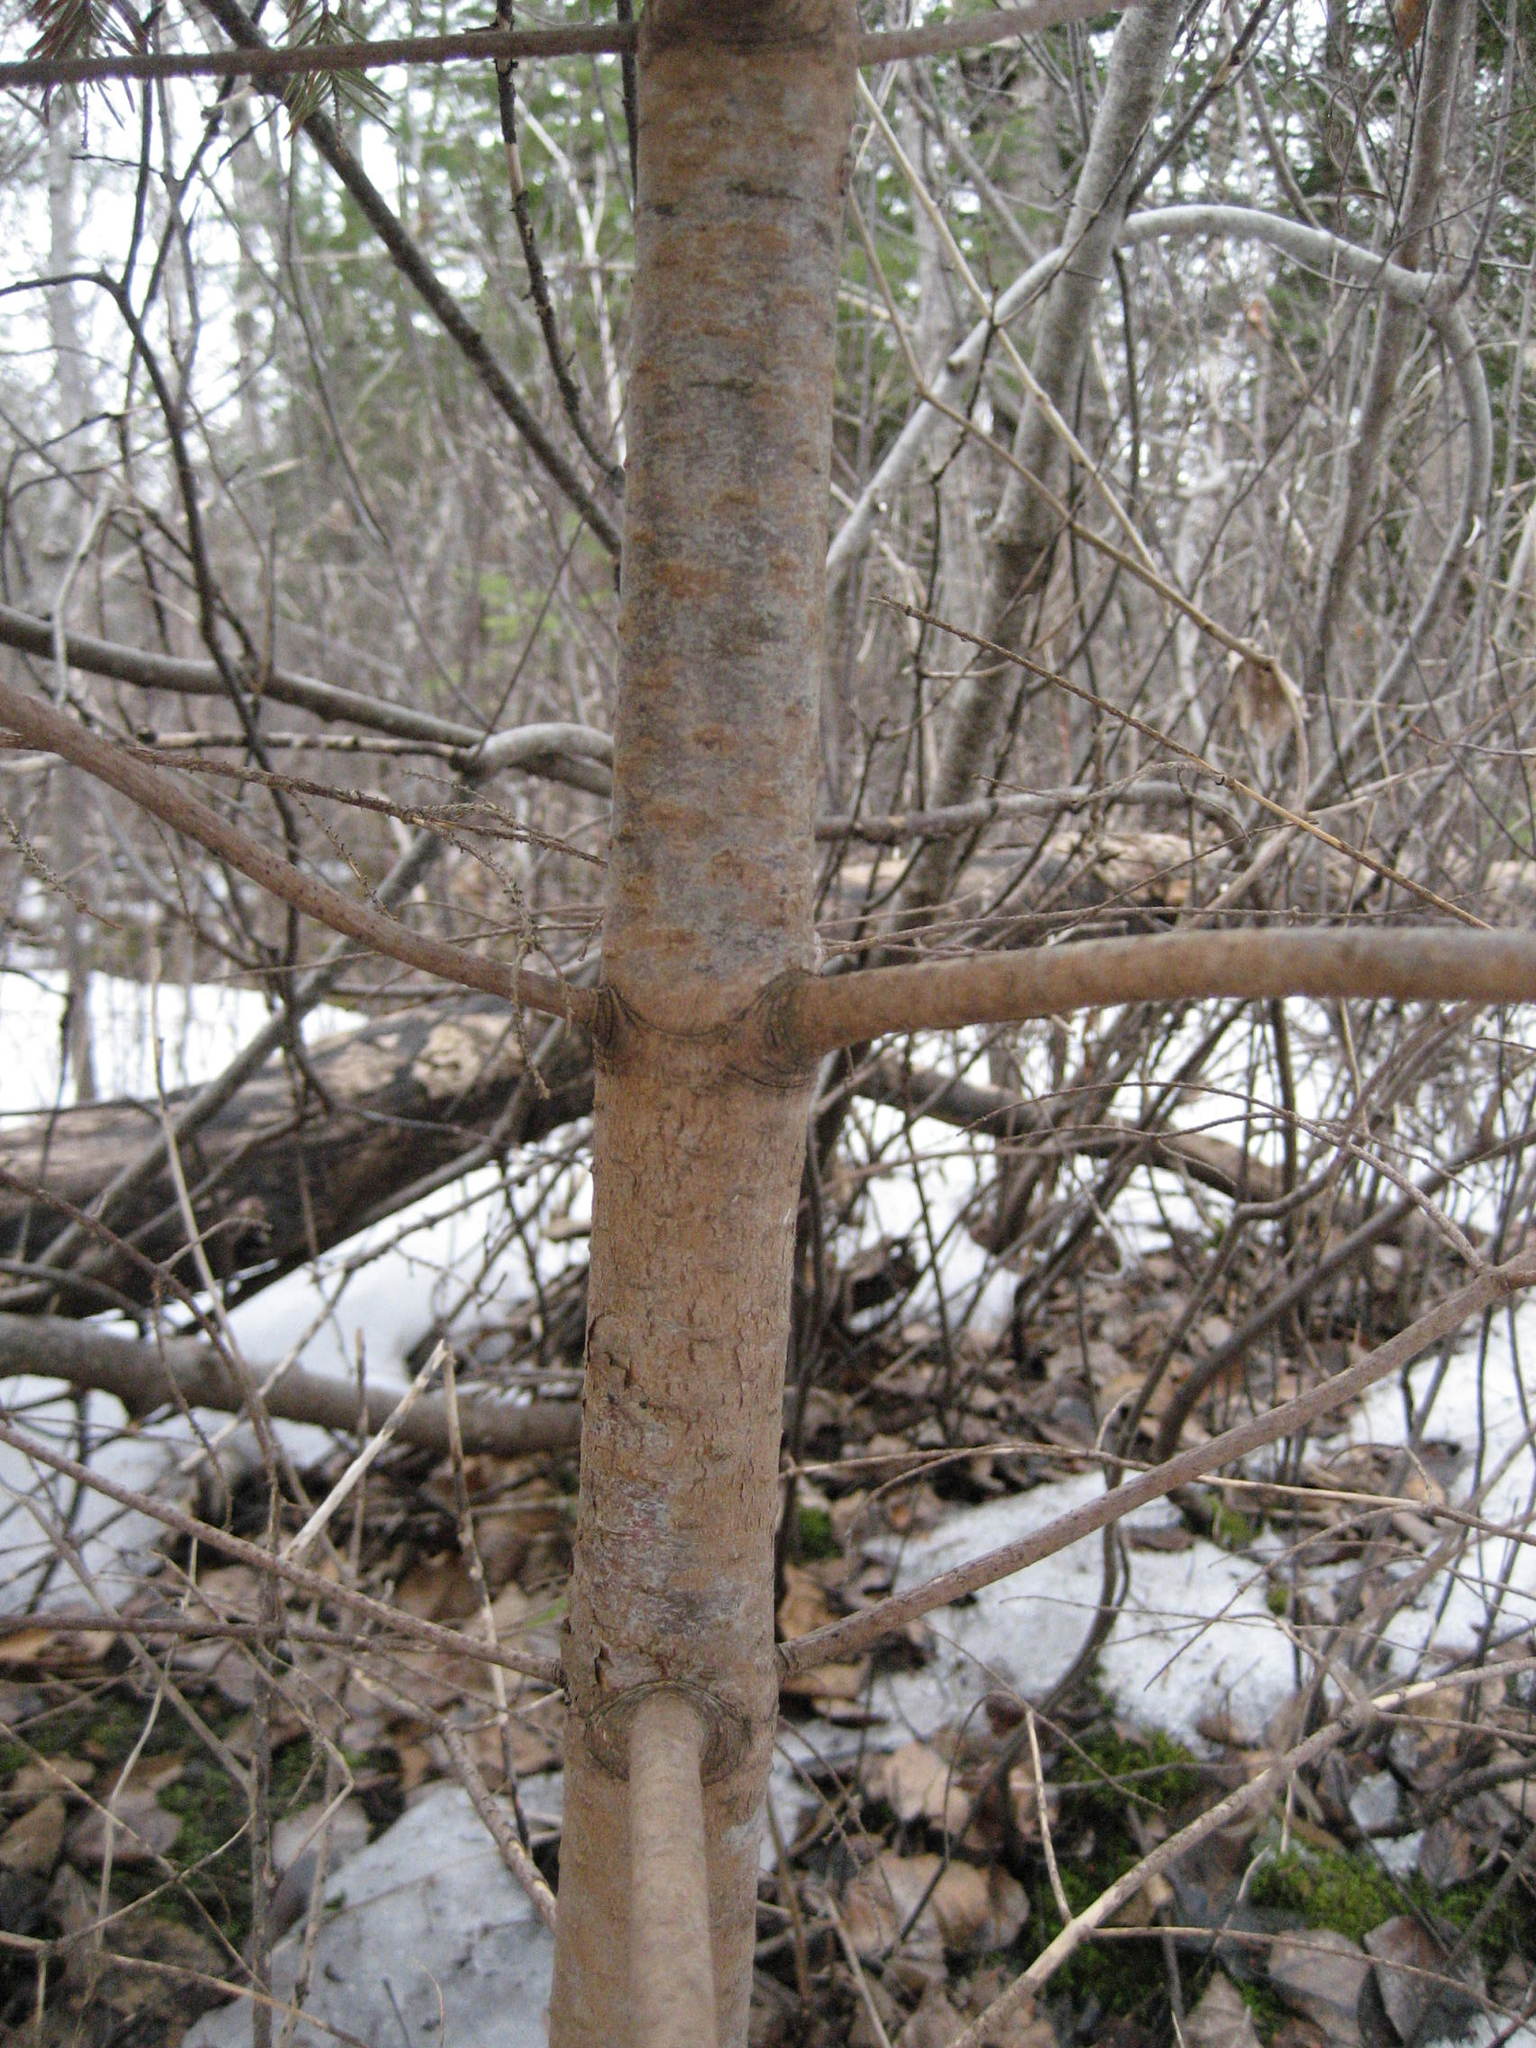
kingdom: Plantae
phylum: Tracheophyta
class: Pinopsida
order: Pinales
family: Pinaceae
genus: Abies
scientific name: Abies balsamea
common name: Balsam fir
